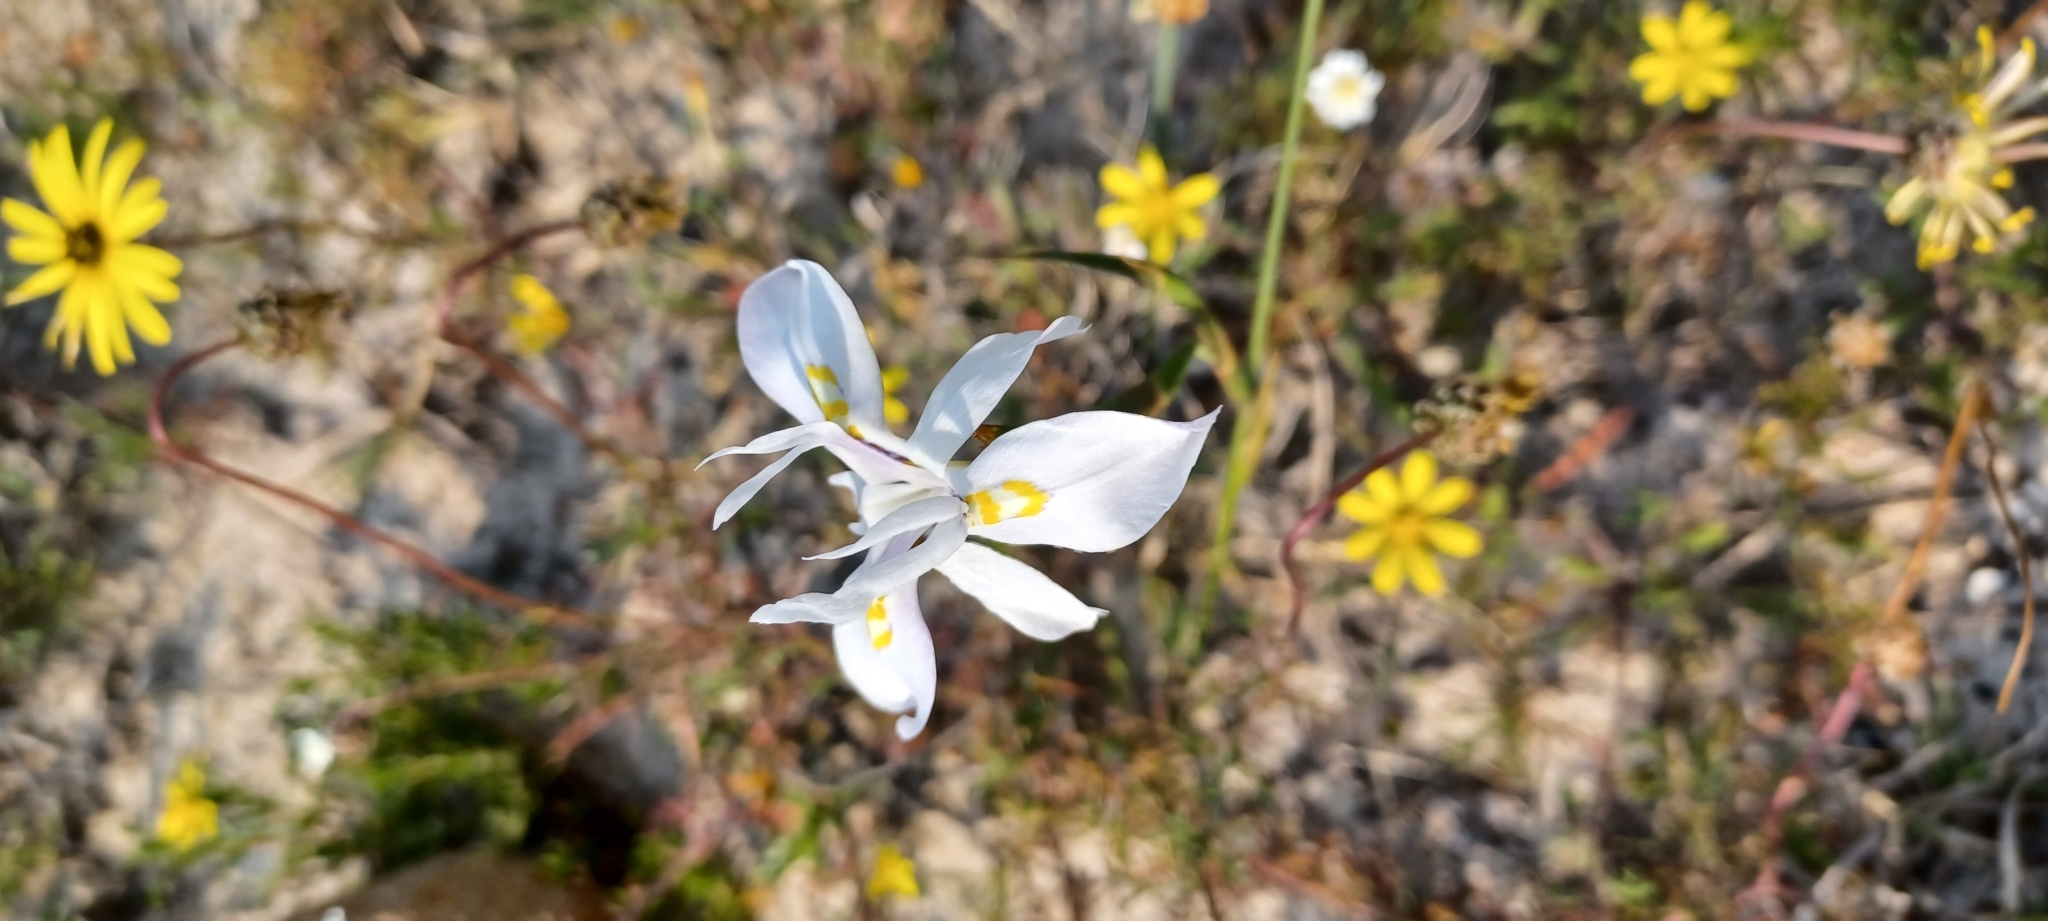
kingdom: Plantae
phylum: Tracheophyta
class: Liliopsida
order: Asparagales
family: Iridaceae
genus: Moraea
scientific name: Moraea fugax
